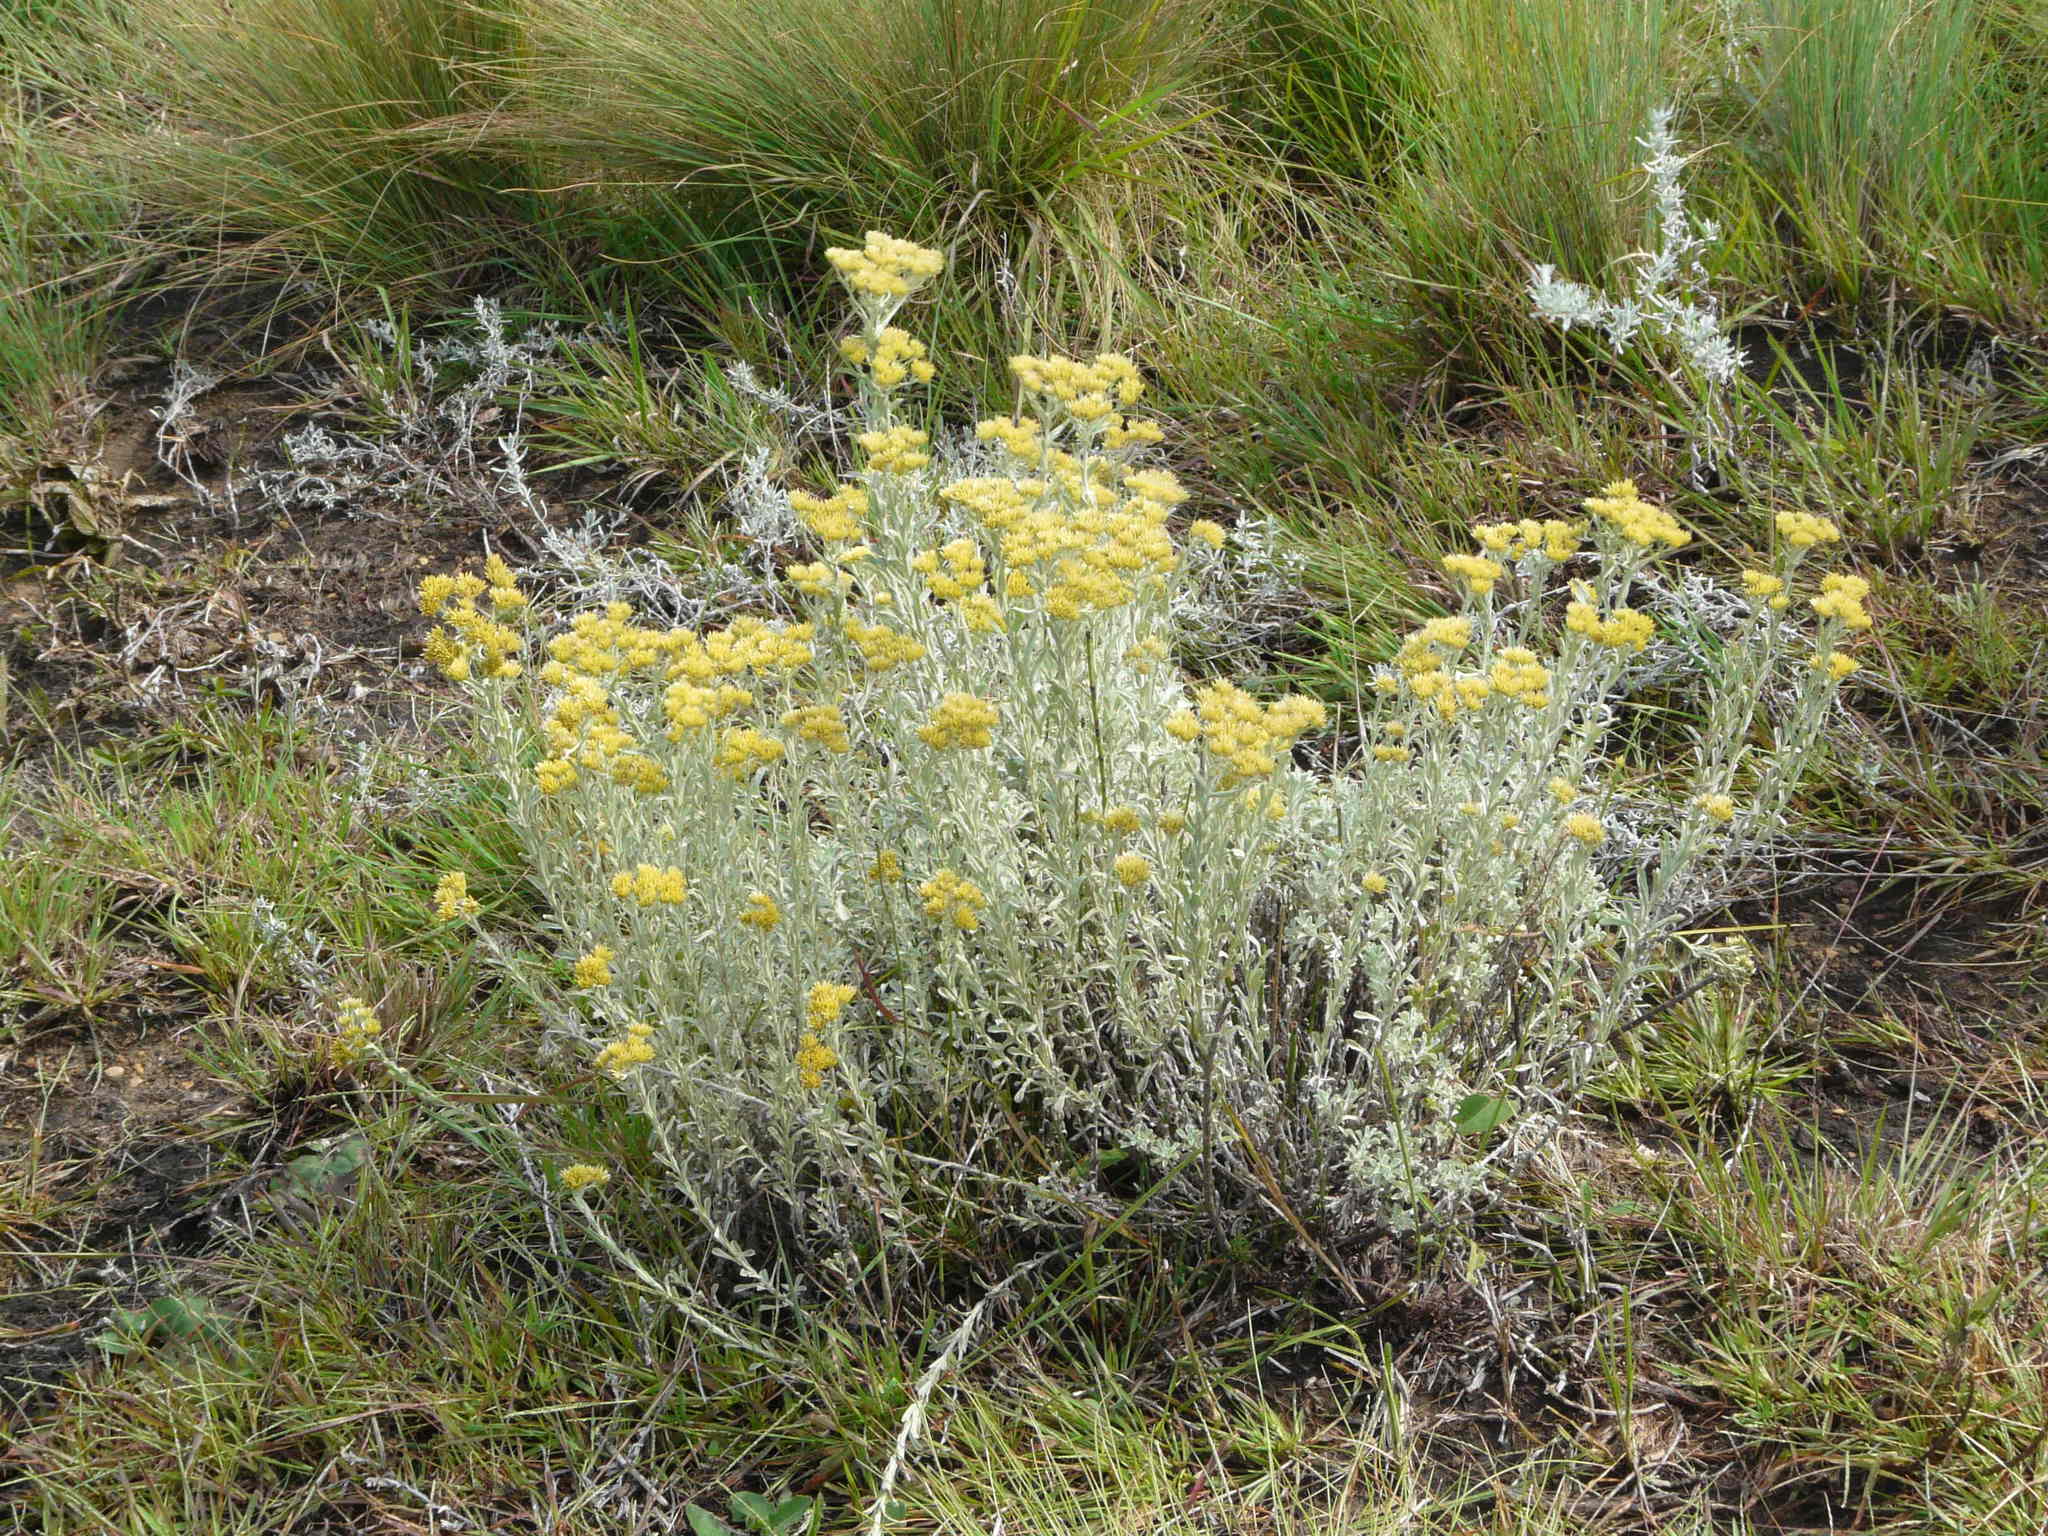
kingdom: Plantae
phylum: Tracheophyta
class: Magnoliopsida
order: Asterales
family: Asteraceae
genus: Helichrysum
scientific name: Helichrysum callicomum
